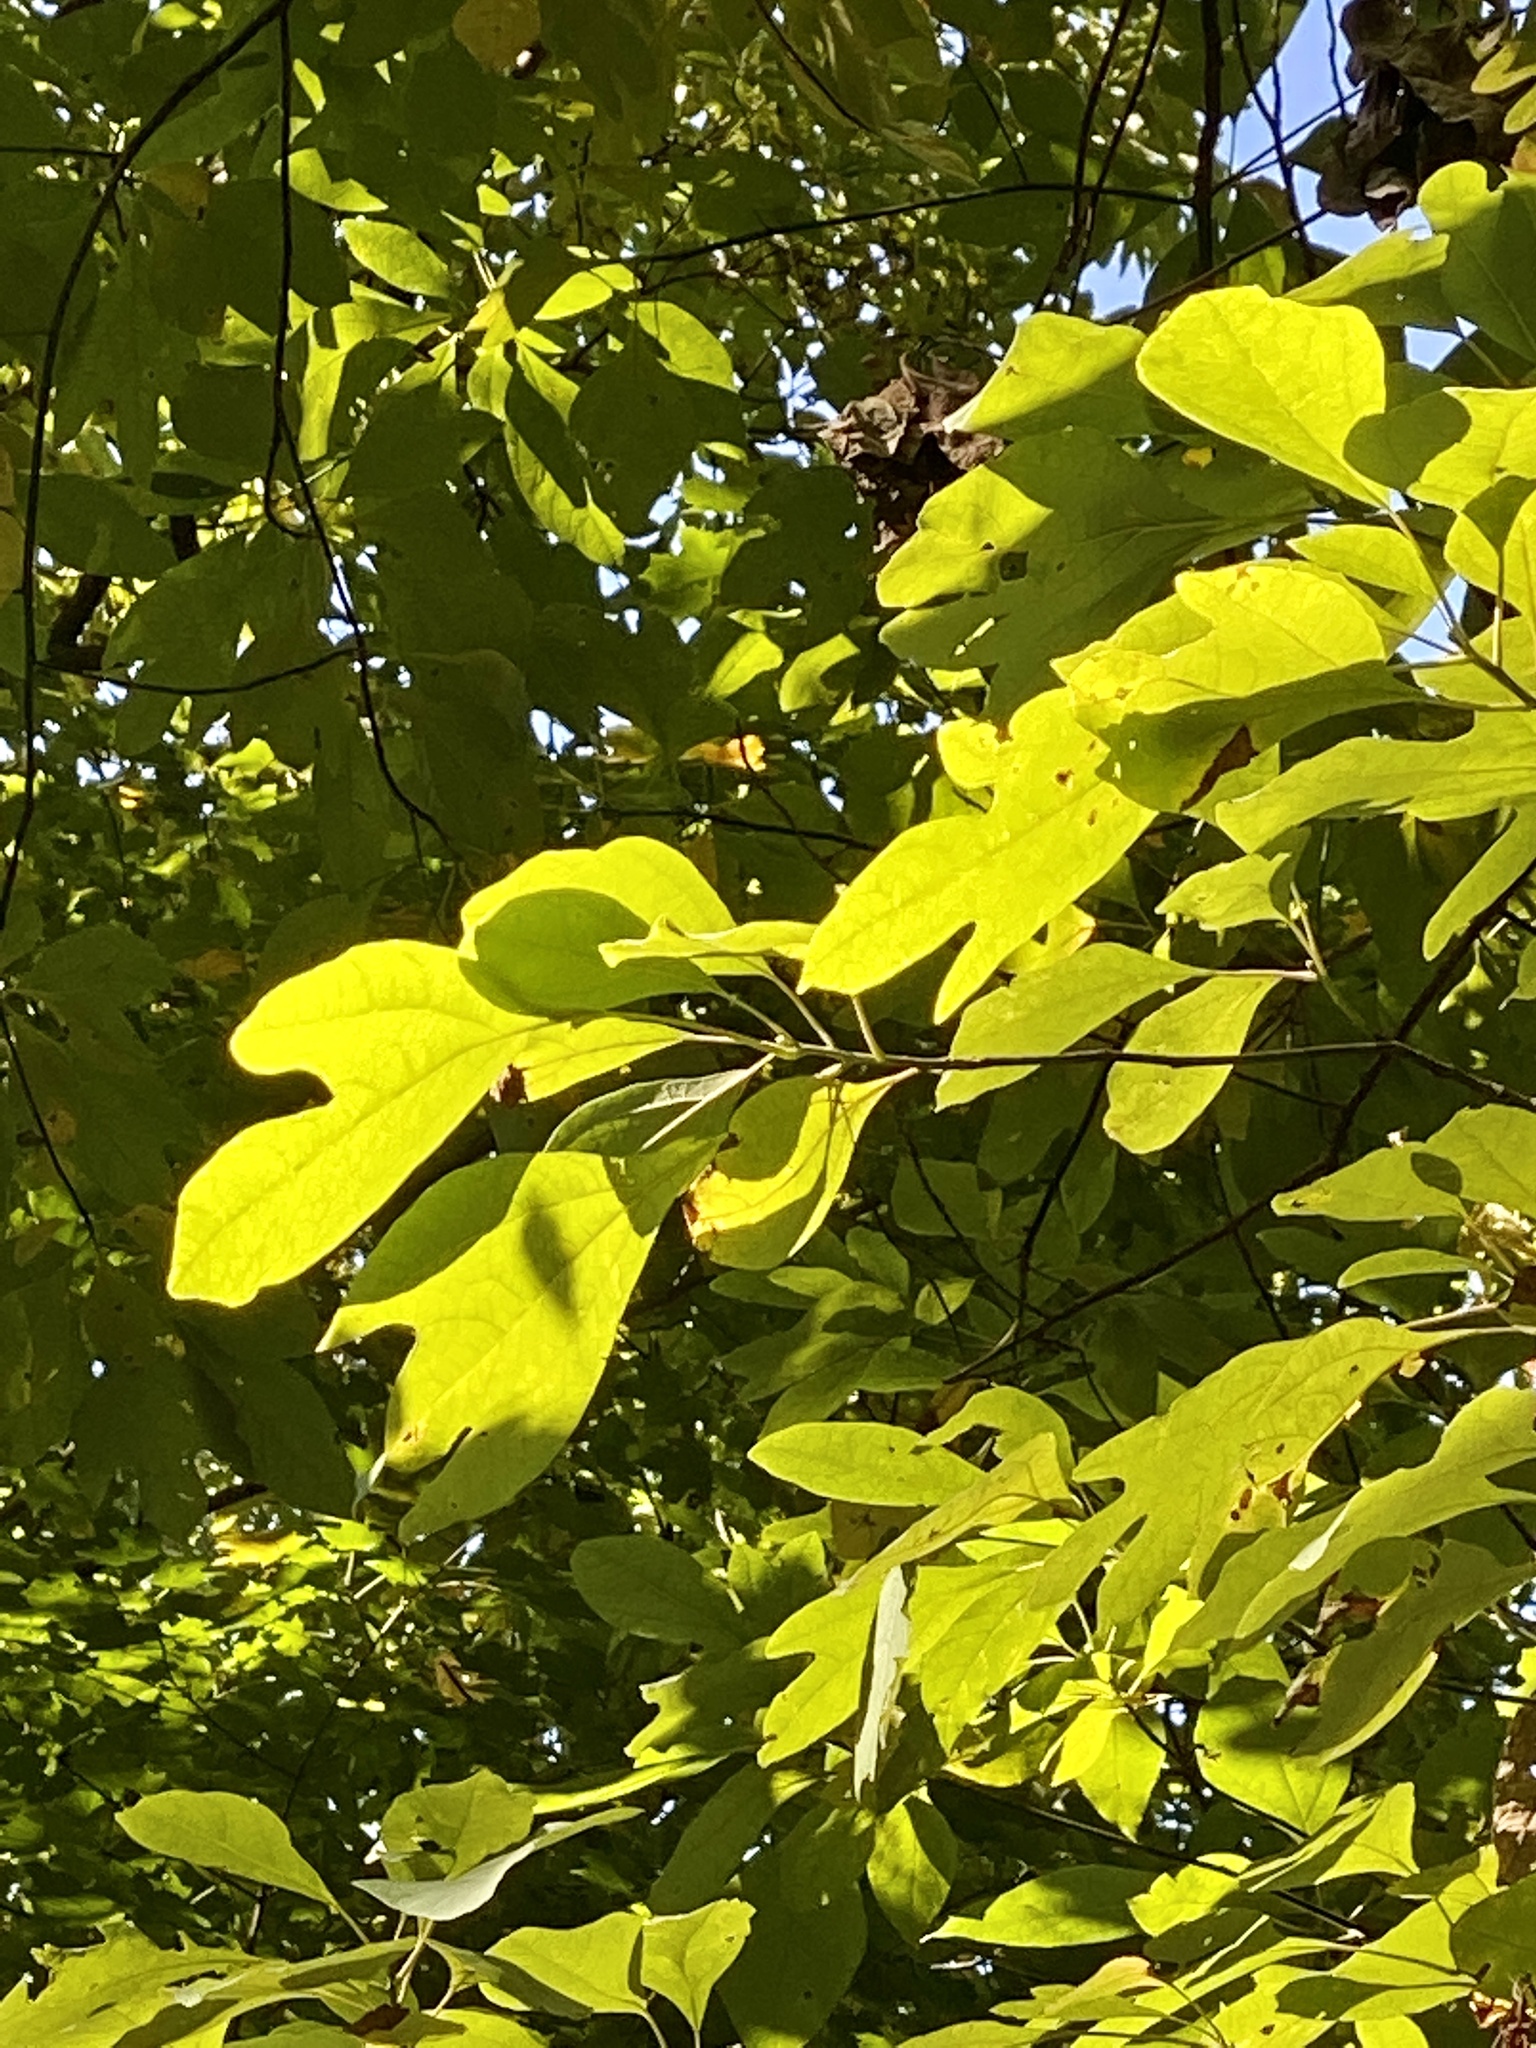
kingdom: Plantae
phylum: Tracheophyta
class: Magnoliopsida
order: Laurales
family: Lauraceae
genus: Sassafras
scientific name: Sassafras albidum
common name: Sassafras
